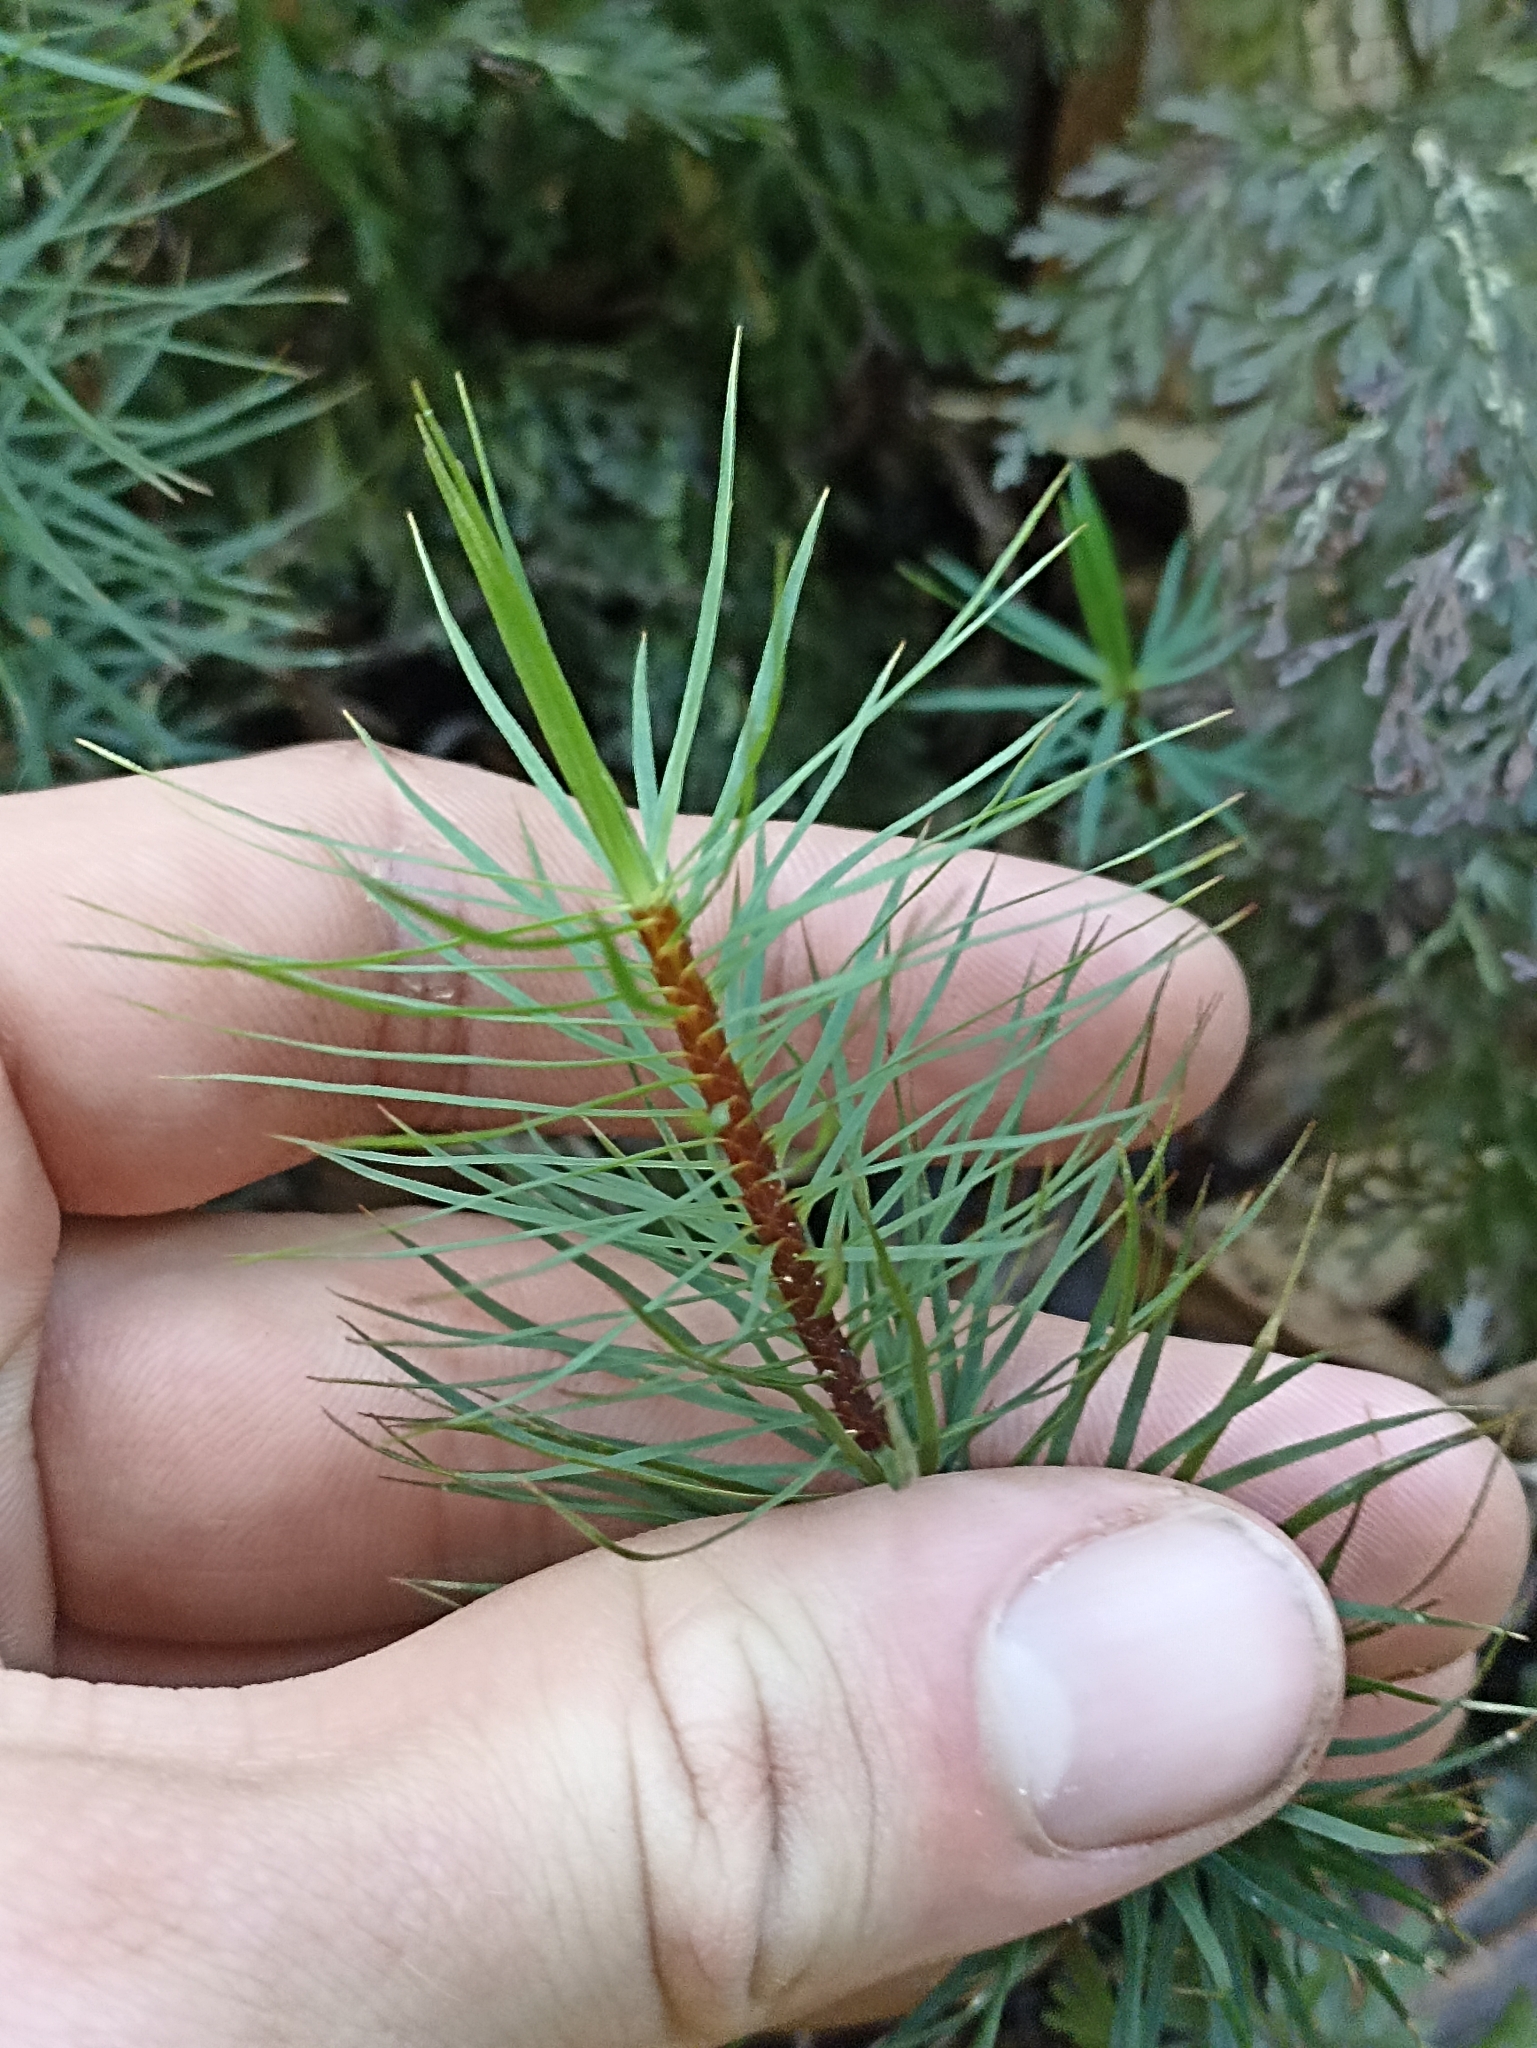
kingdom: Plantae
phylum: Bryophyta
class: Polytrichopsida
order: Polytrichales
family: Polytrichaceae
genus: Dawsonia
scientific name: Dawsonia superba
